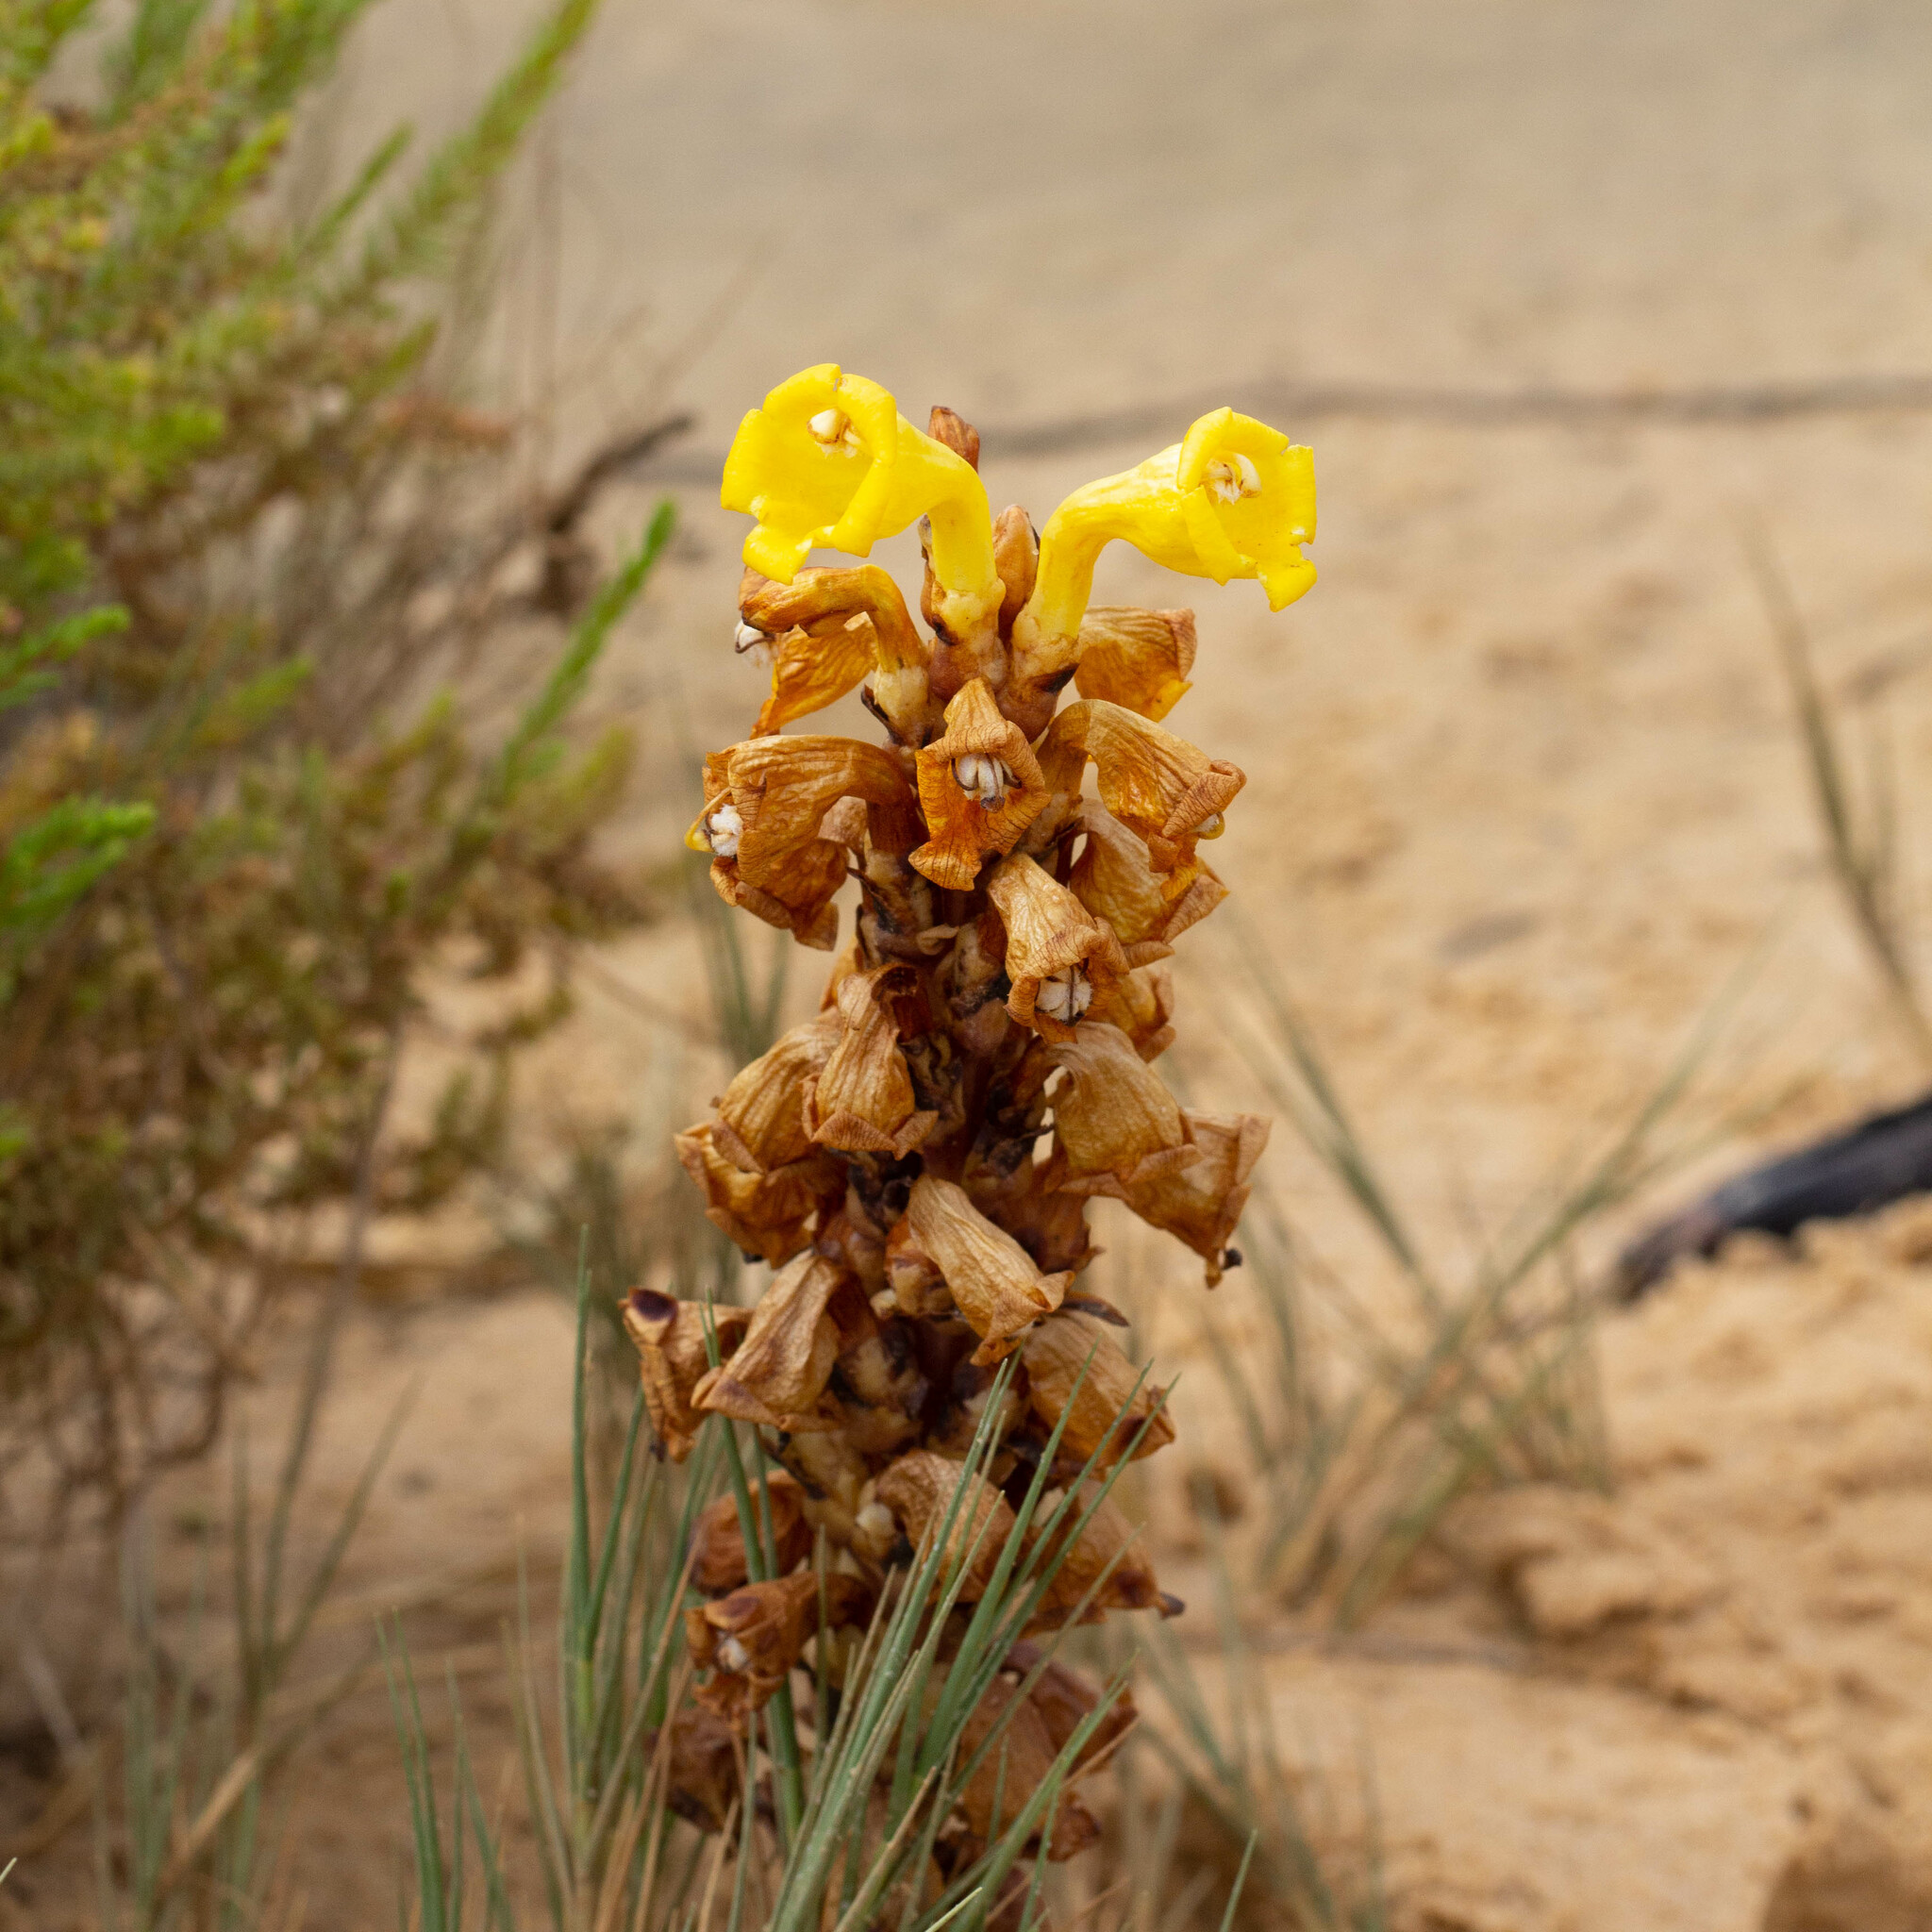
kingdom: Plantae
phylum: Tracheophyta
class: Magnoliopsida
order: Lamiales
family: Orobanchaceae
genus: Cistanche
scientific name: Cistanche phelypaea
